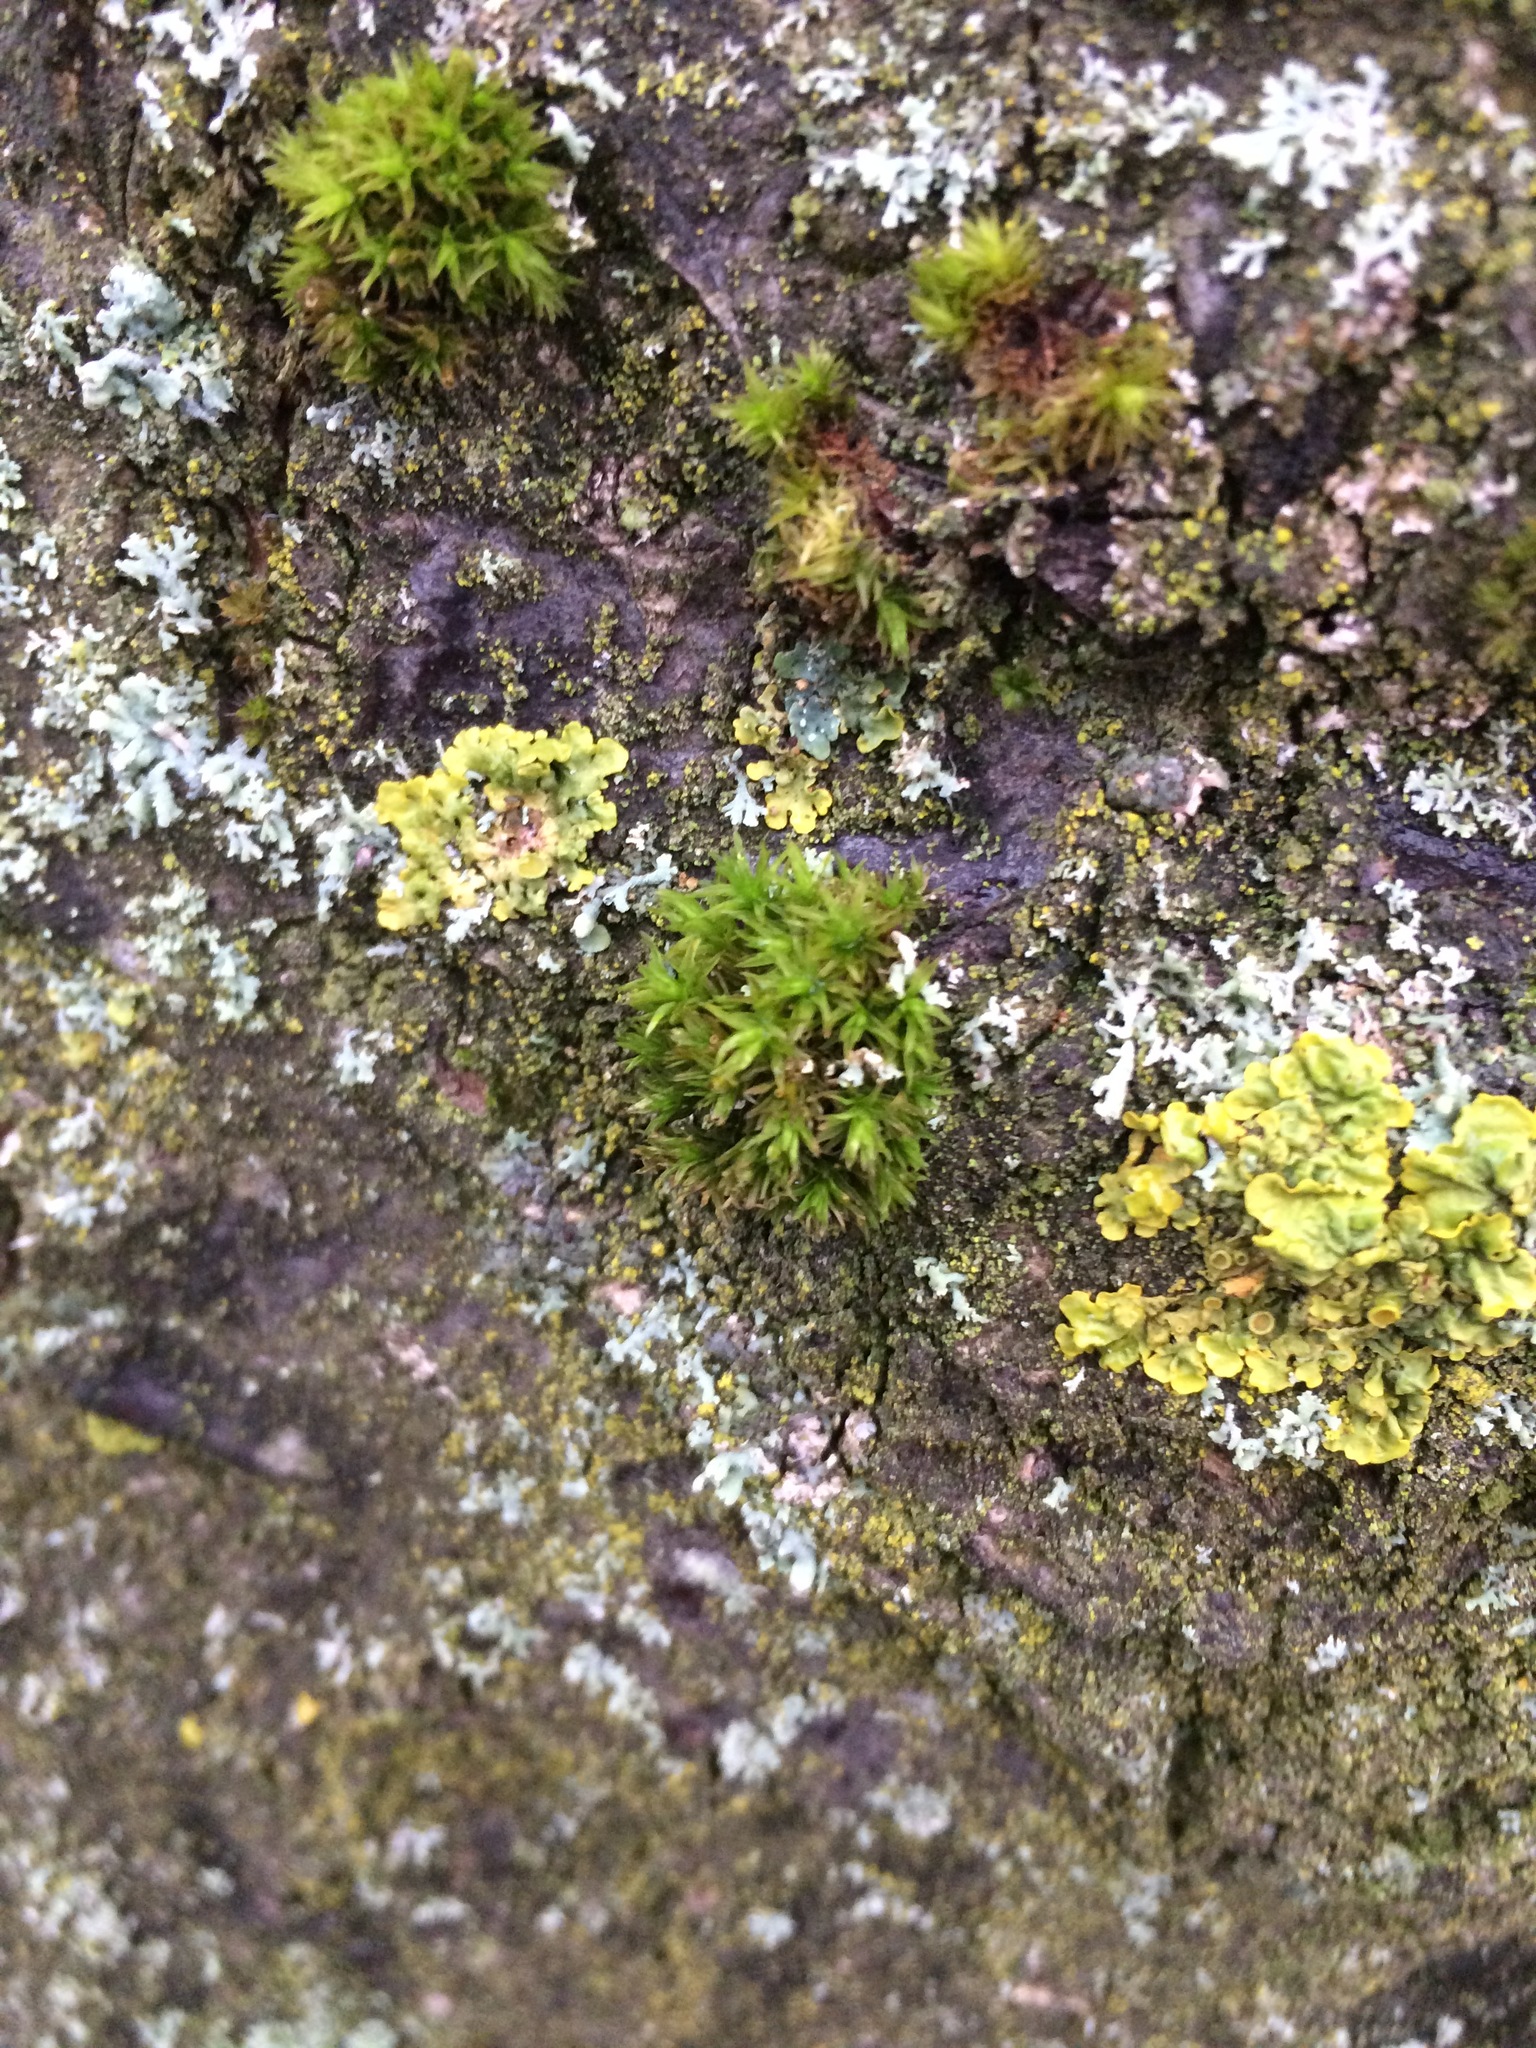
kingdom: Plantae
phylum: Bryophyta
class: Bryopsida
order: Orthotrichales
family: Orthotrichaceae
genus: Lewinskya
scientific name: Lewinskya affinis
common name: Wood bristle-moss
